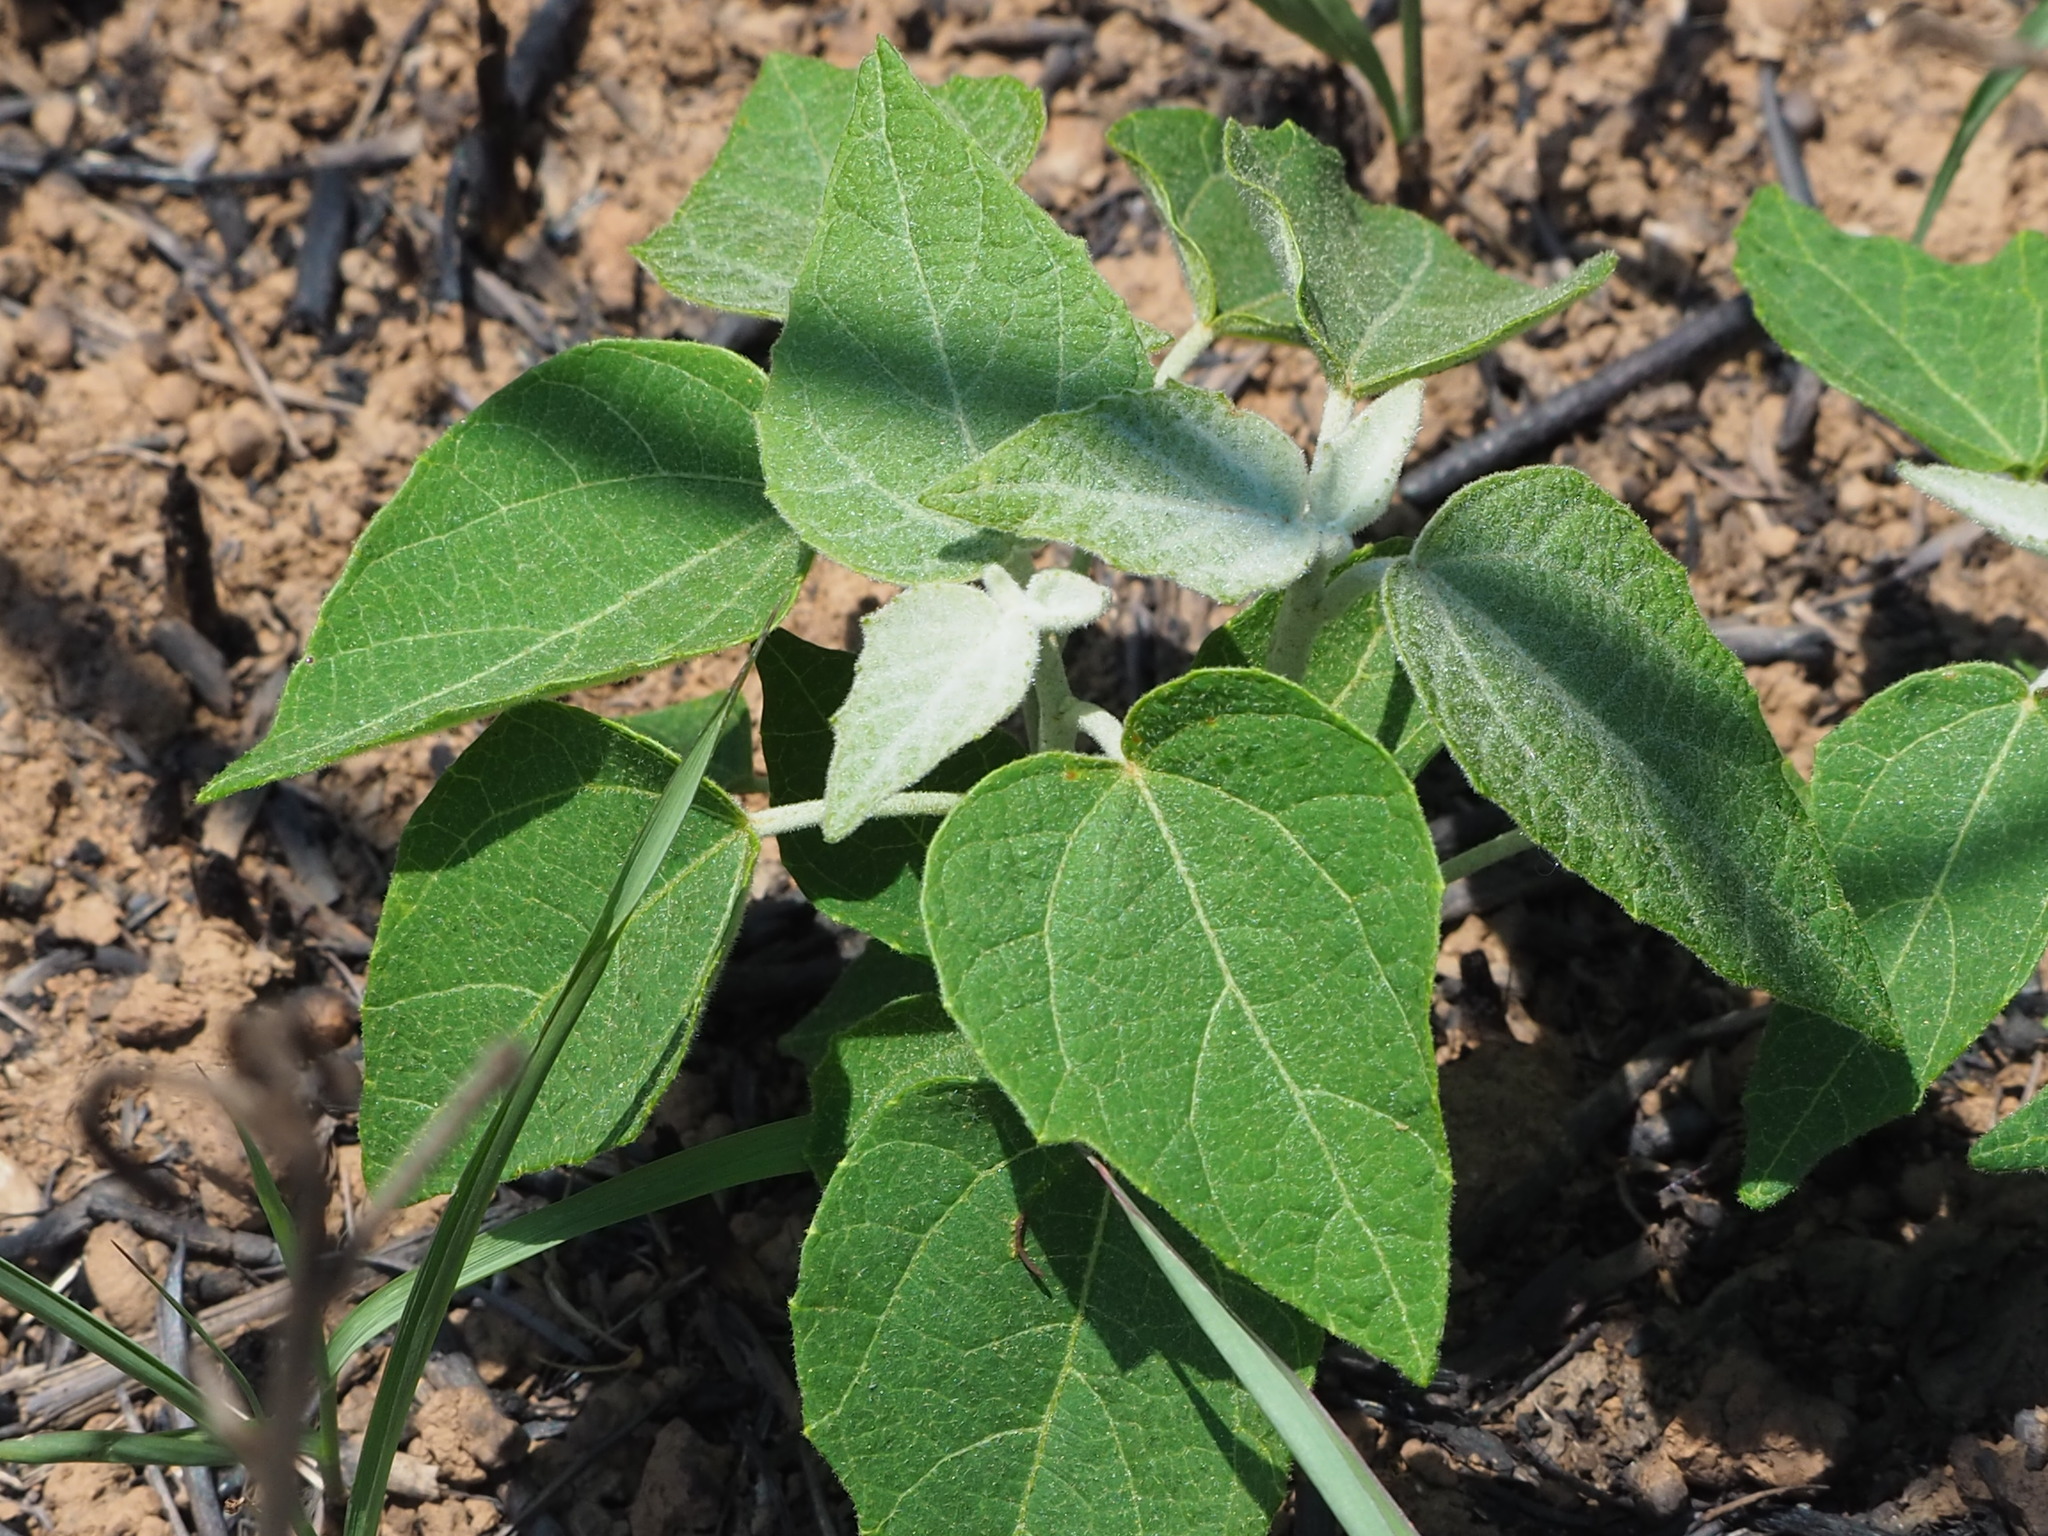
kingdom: Plantae
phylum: Tracheophyta
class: Magnoliopsida
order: Malpighiales
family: Euphorbiaceae
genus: Mallotus
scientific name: Mallotus japonicus
